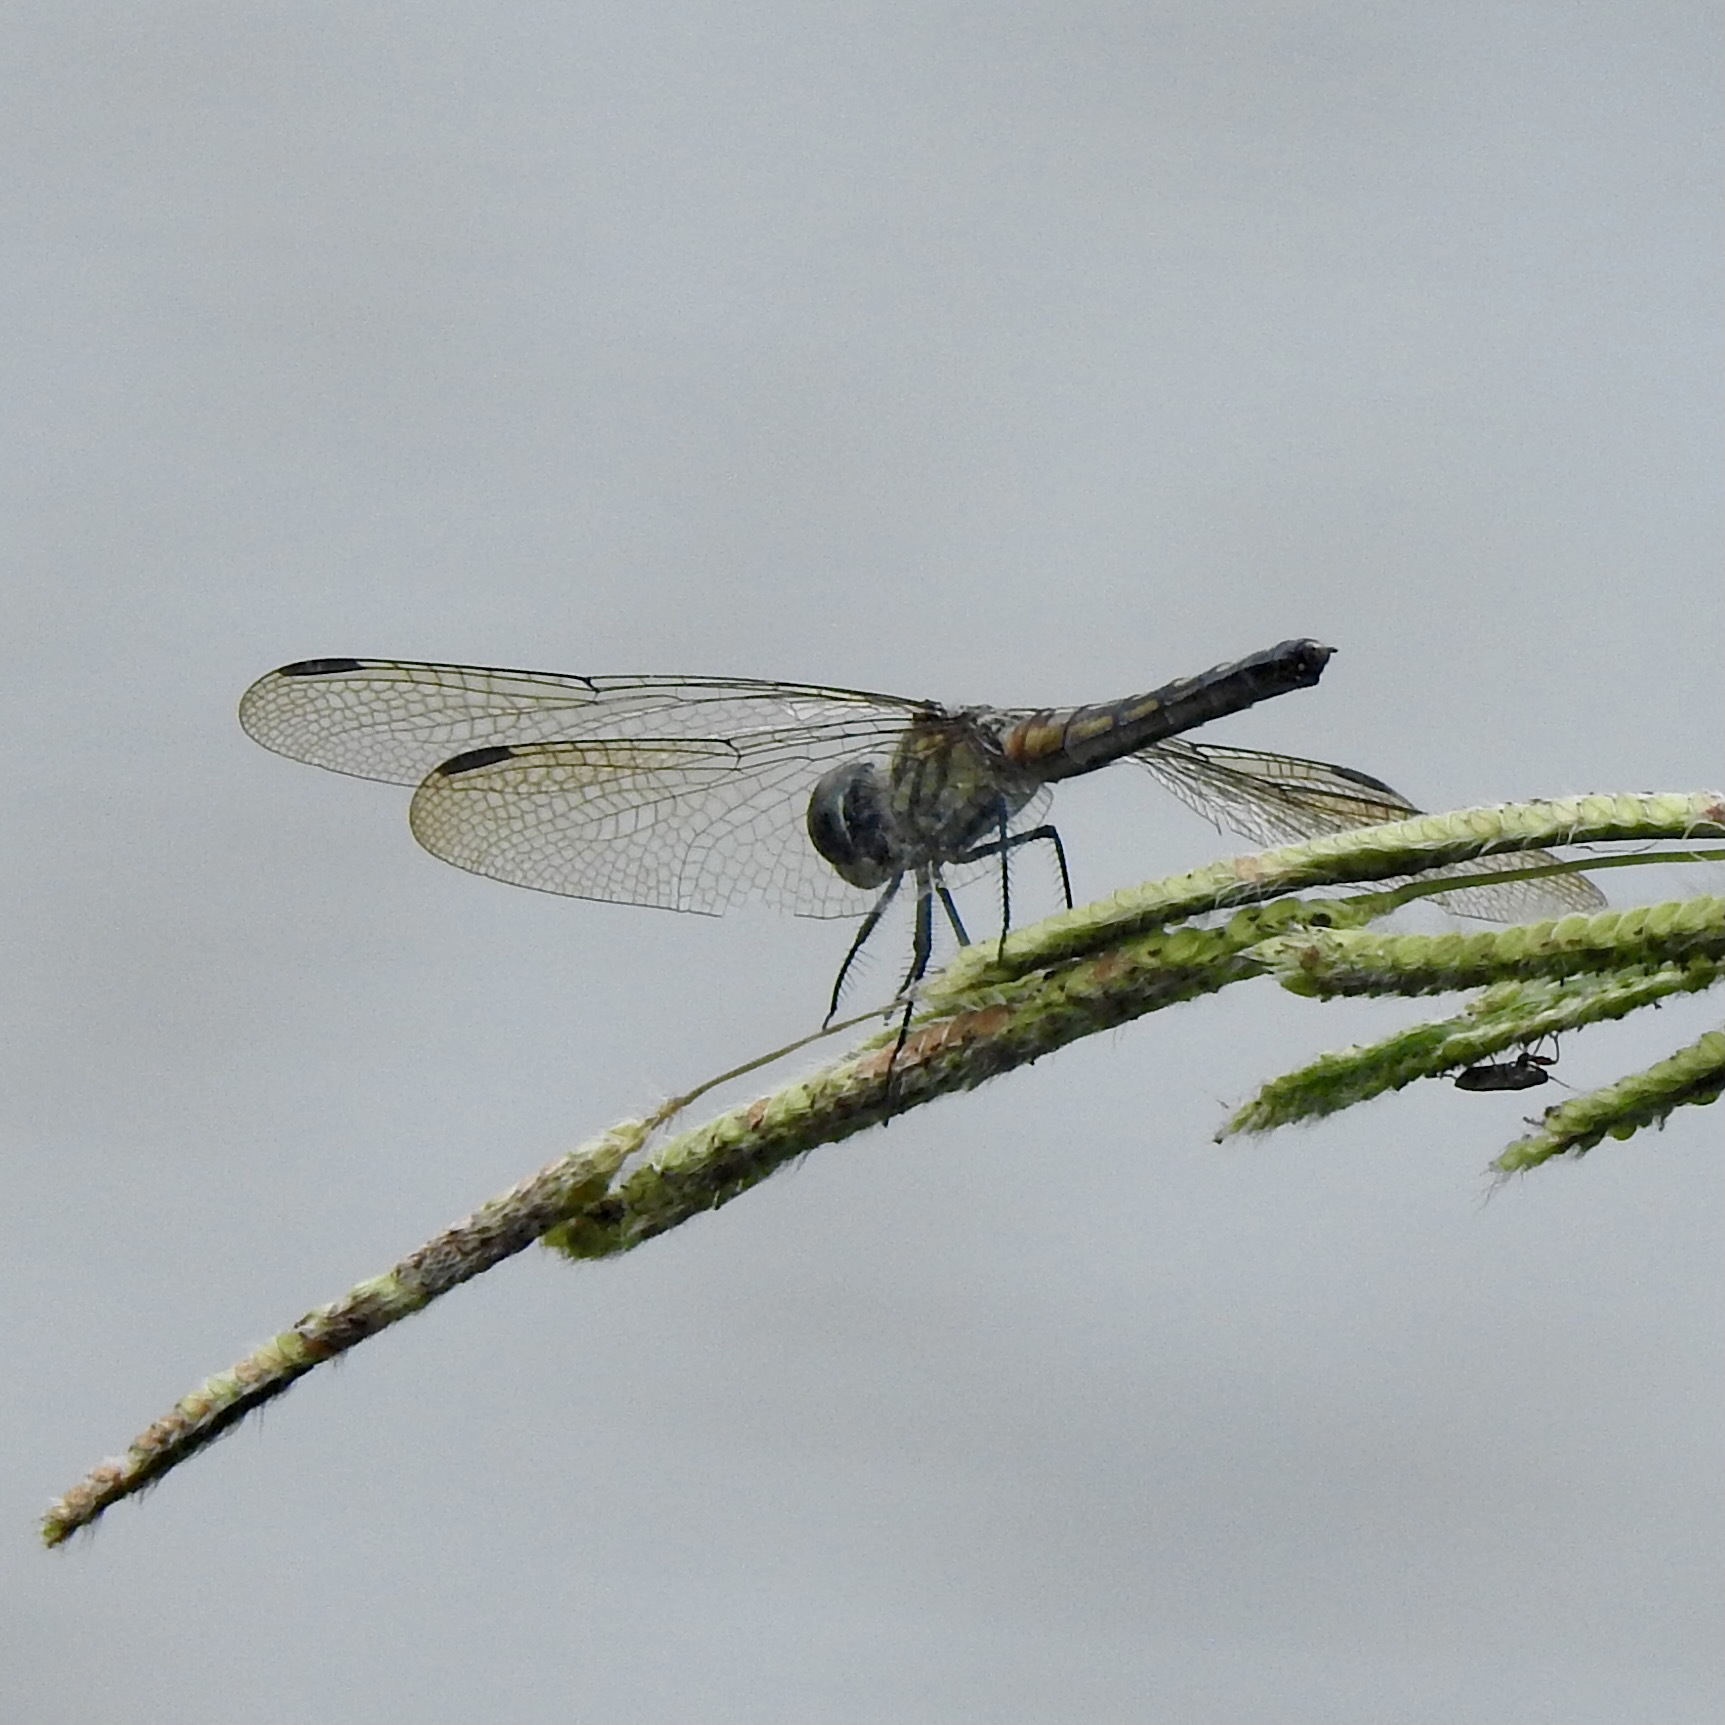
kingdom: Animalia
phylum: Arthropoda
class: Insecta
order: Odonata
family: Libellulidae
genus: Pachydiplax
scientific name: Pachydiplax longipennis
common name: Blue dasher
